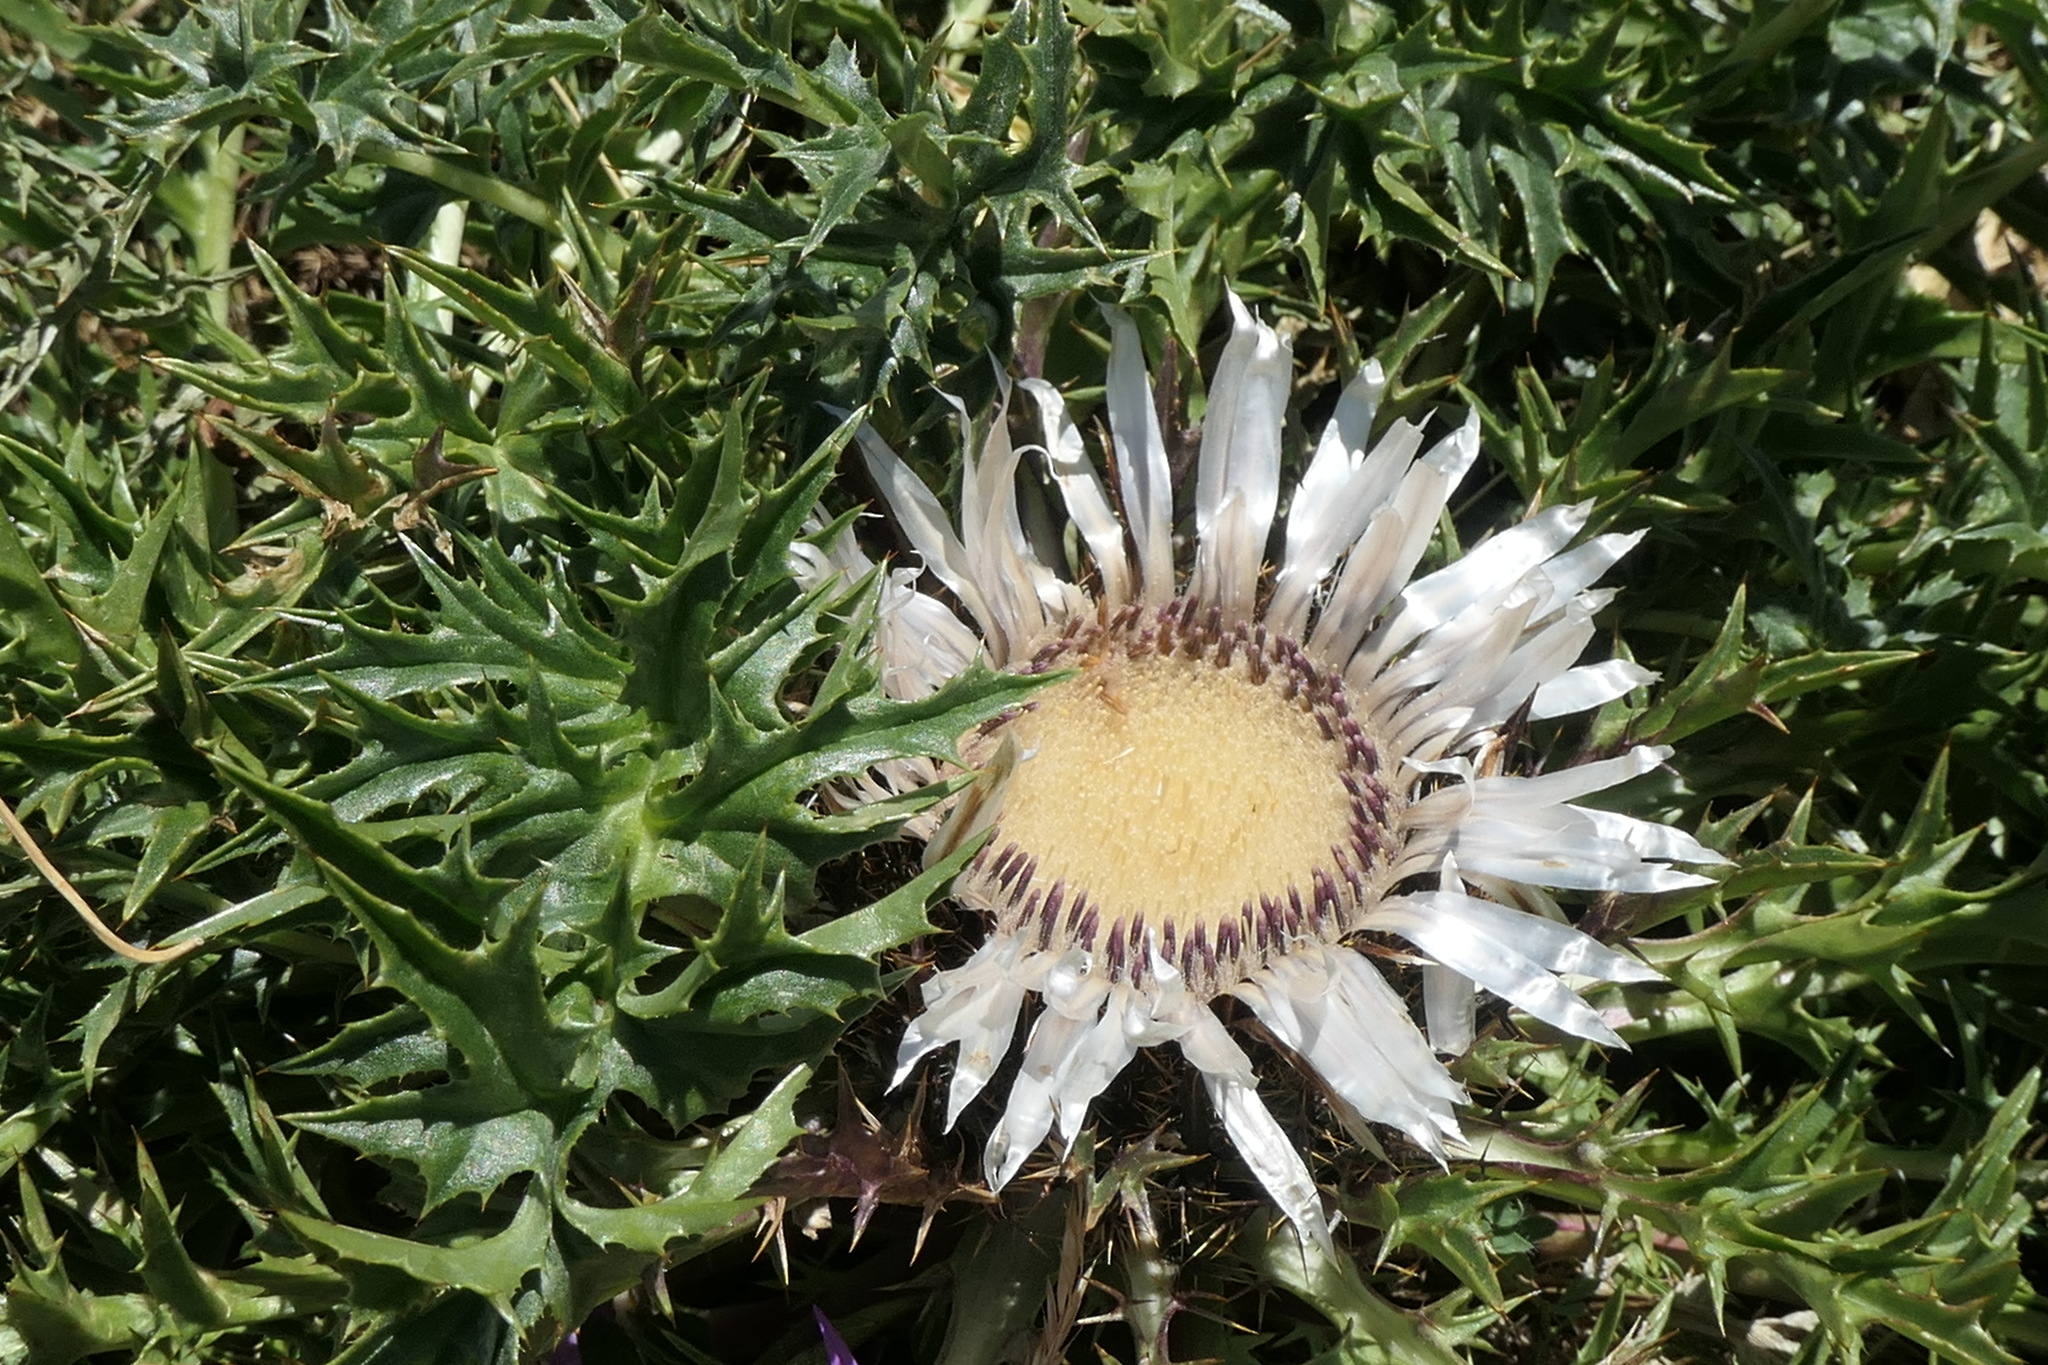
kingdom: Plantae
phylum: Tracheophyta
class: Magnoliopsida
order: Asterales
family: Asteraceae
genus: Carlina
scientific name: Carlina acaulis
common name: Stemless carline thistle
